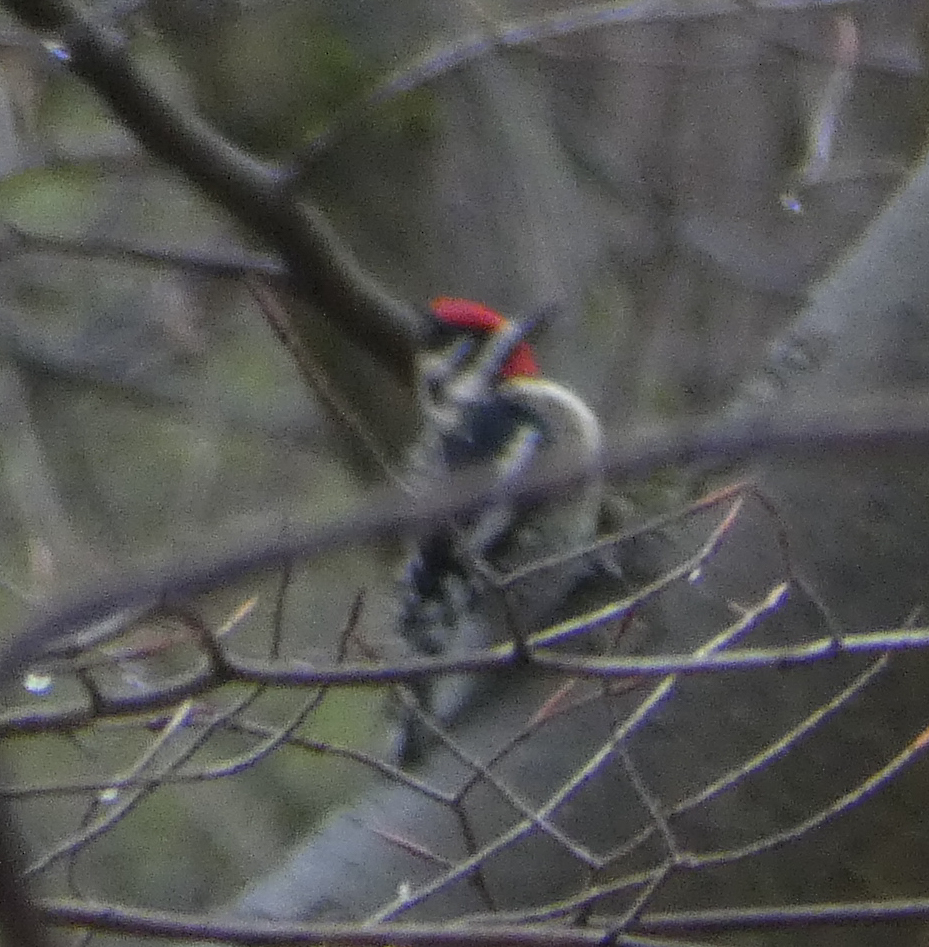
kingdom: Animalia
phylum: Chordata
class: Aves
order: Piciformes
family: Picidae
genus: Sphyrapicus
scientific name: Sphyrapicus varius
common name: Yellow-bellied sapsucker
